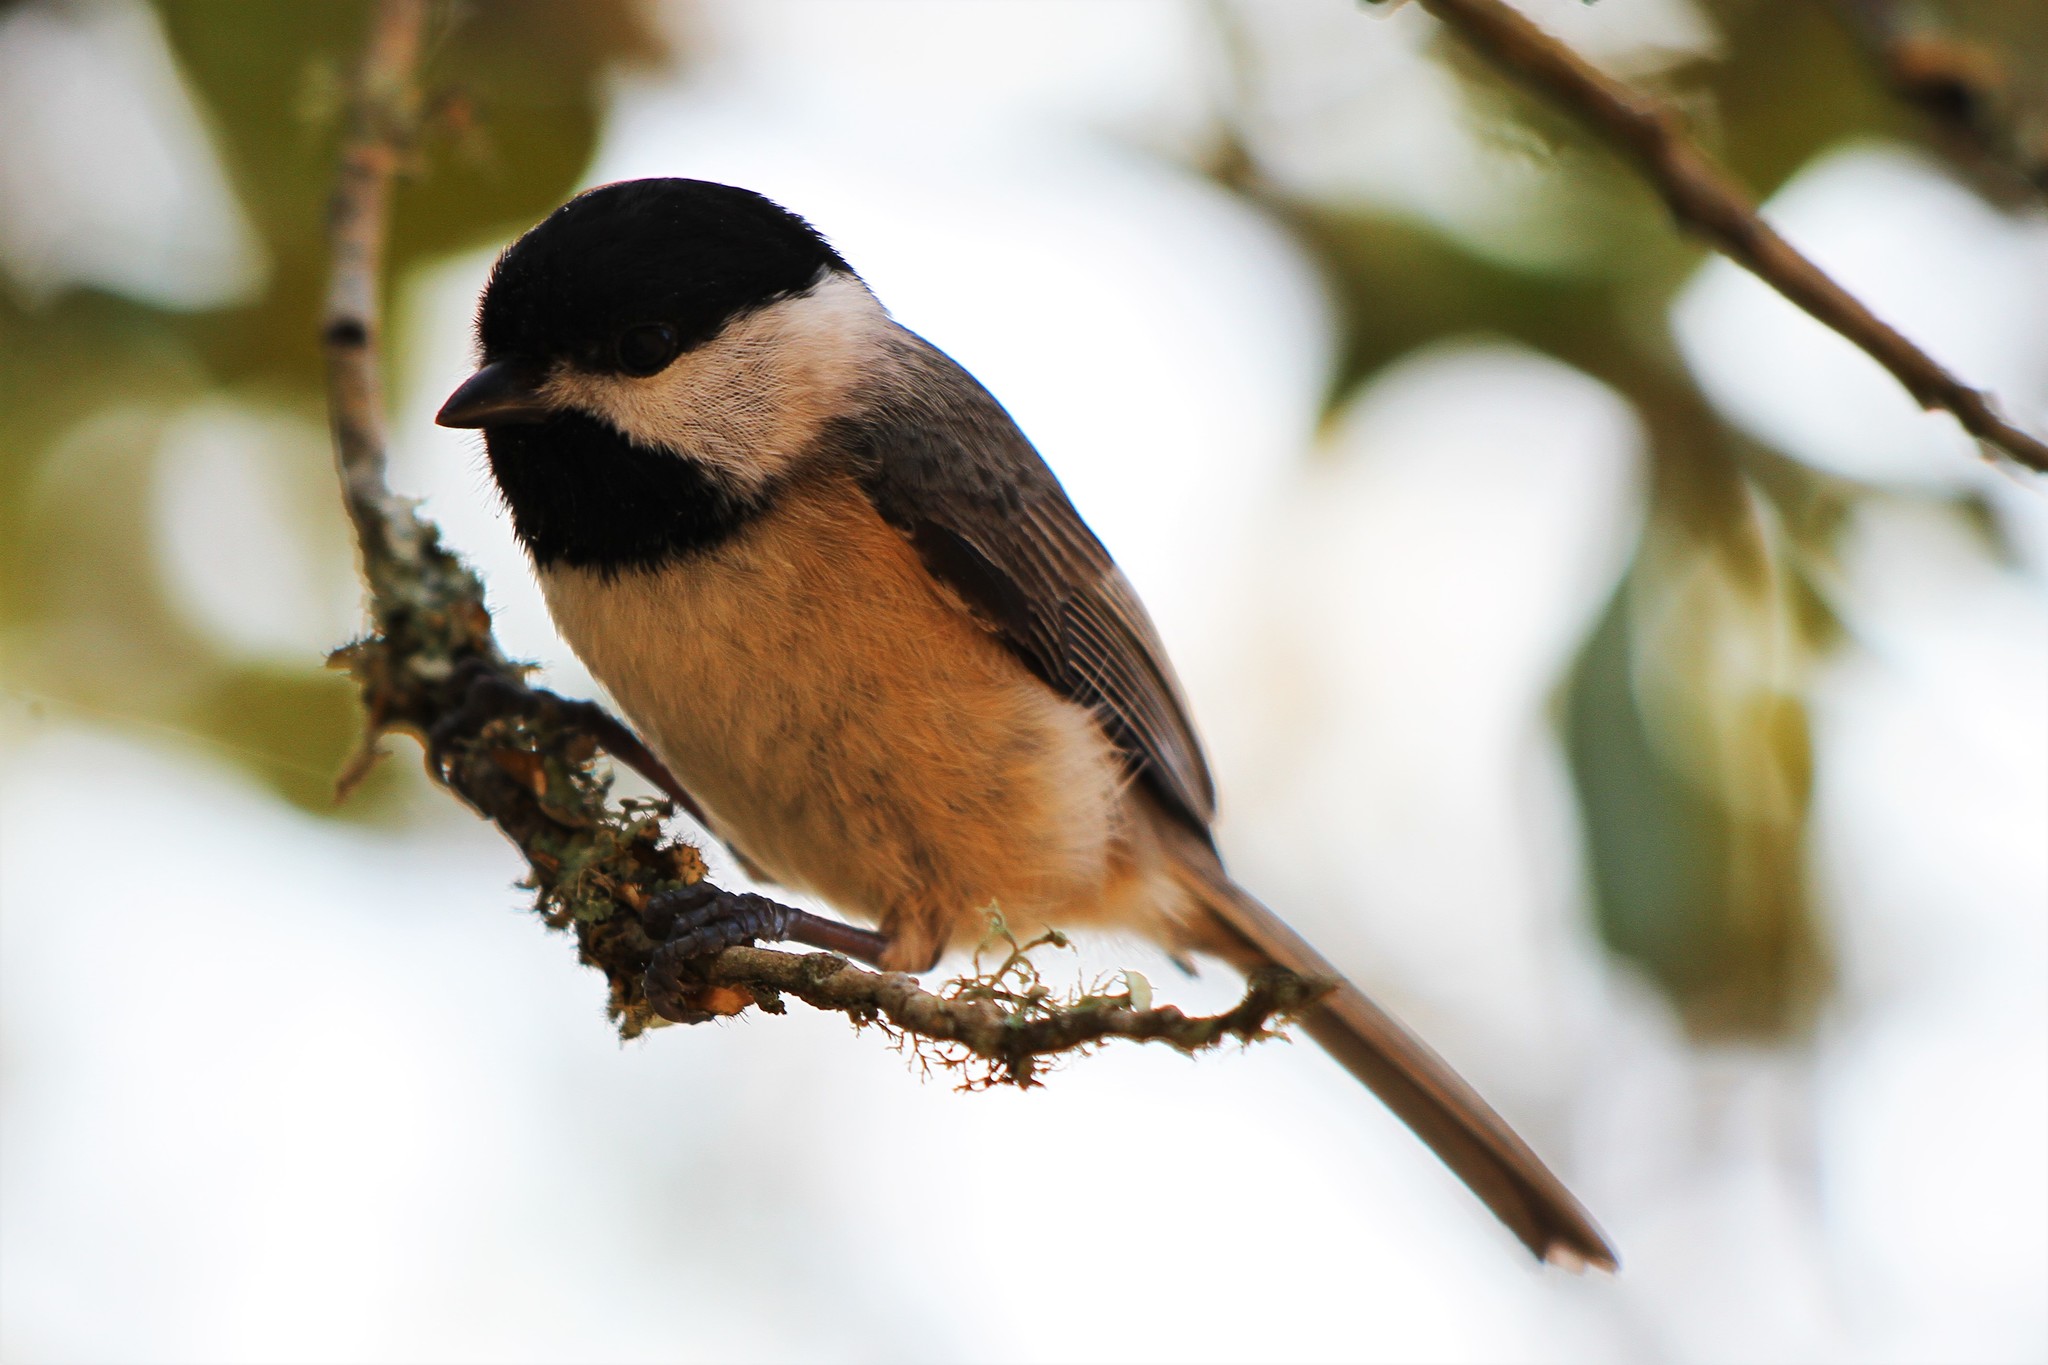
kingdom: Animalia
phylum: Chordata
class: Aves
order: Passeriformes
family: Paridae
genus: Poecile
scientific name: Poecile carolinensis
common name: Carolina chickadee
